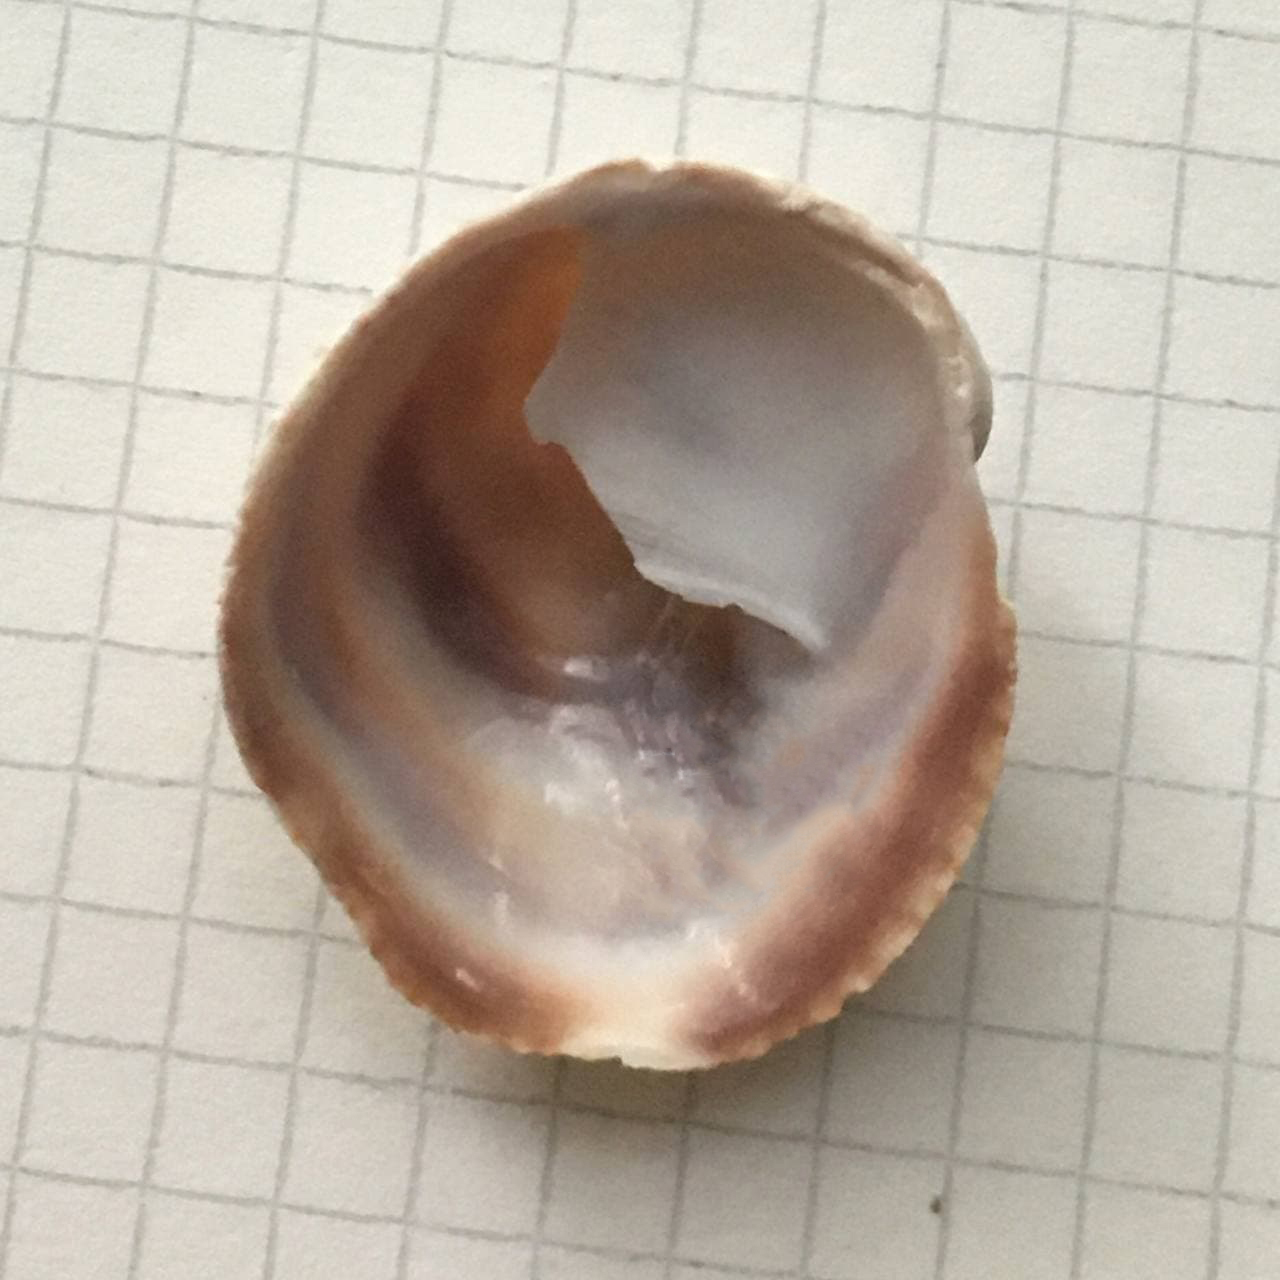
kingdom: Animalia
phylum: Mollusca
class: Gastropoda
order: Littorinimorpha
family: Calyptraeidae
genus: Crepipatella
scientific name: Crepipatella dilatata
